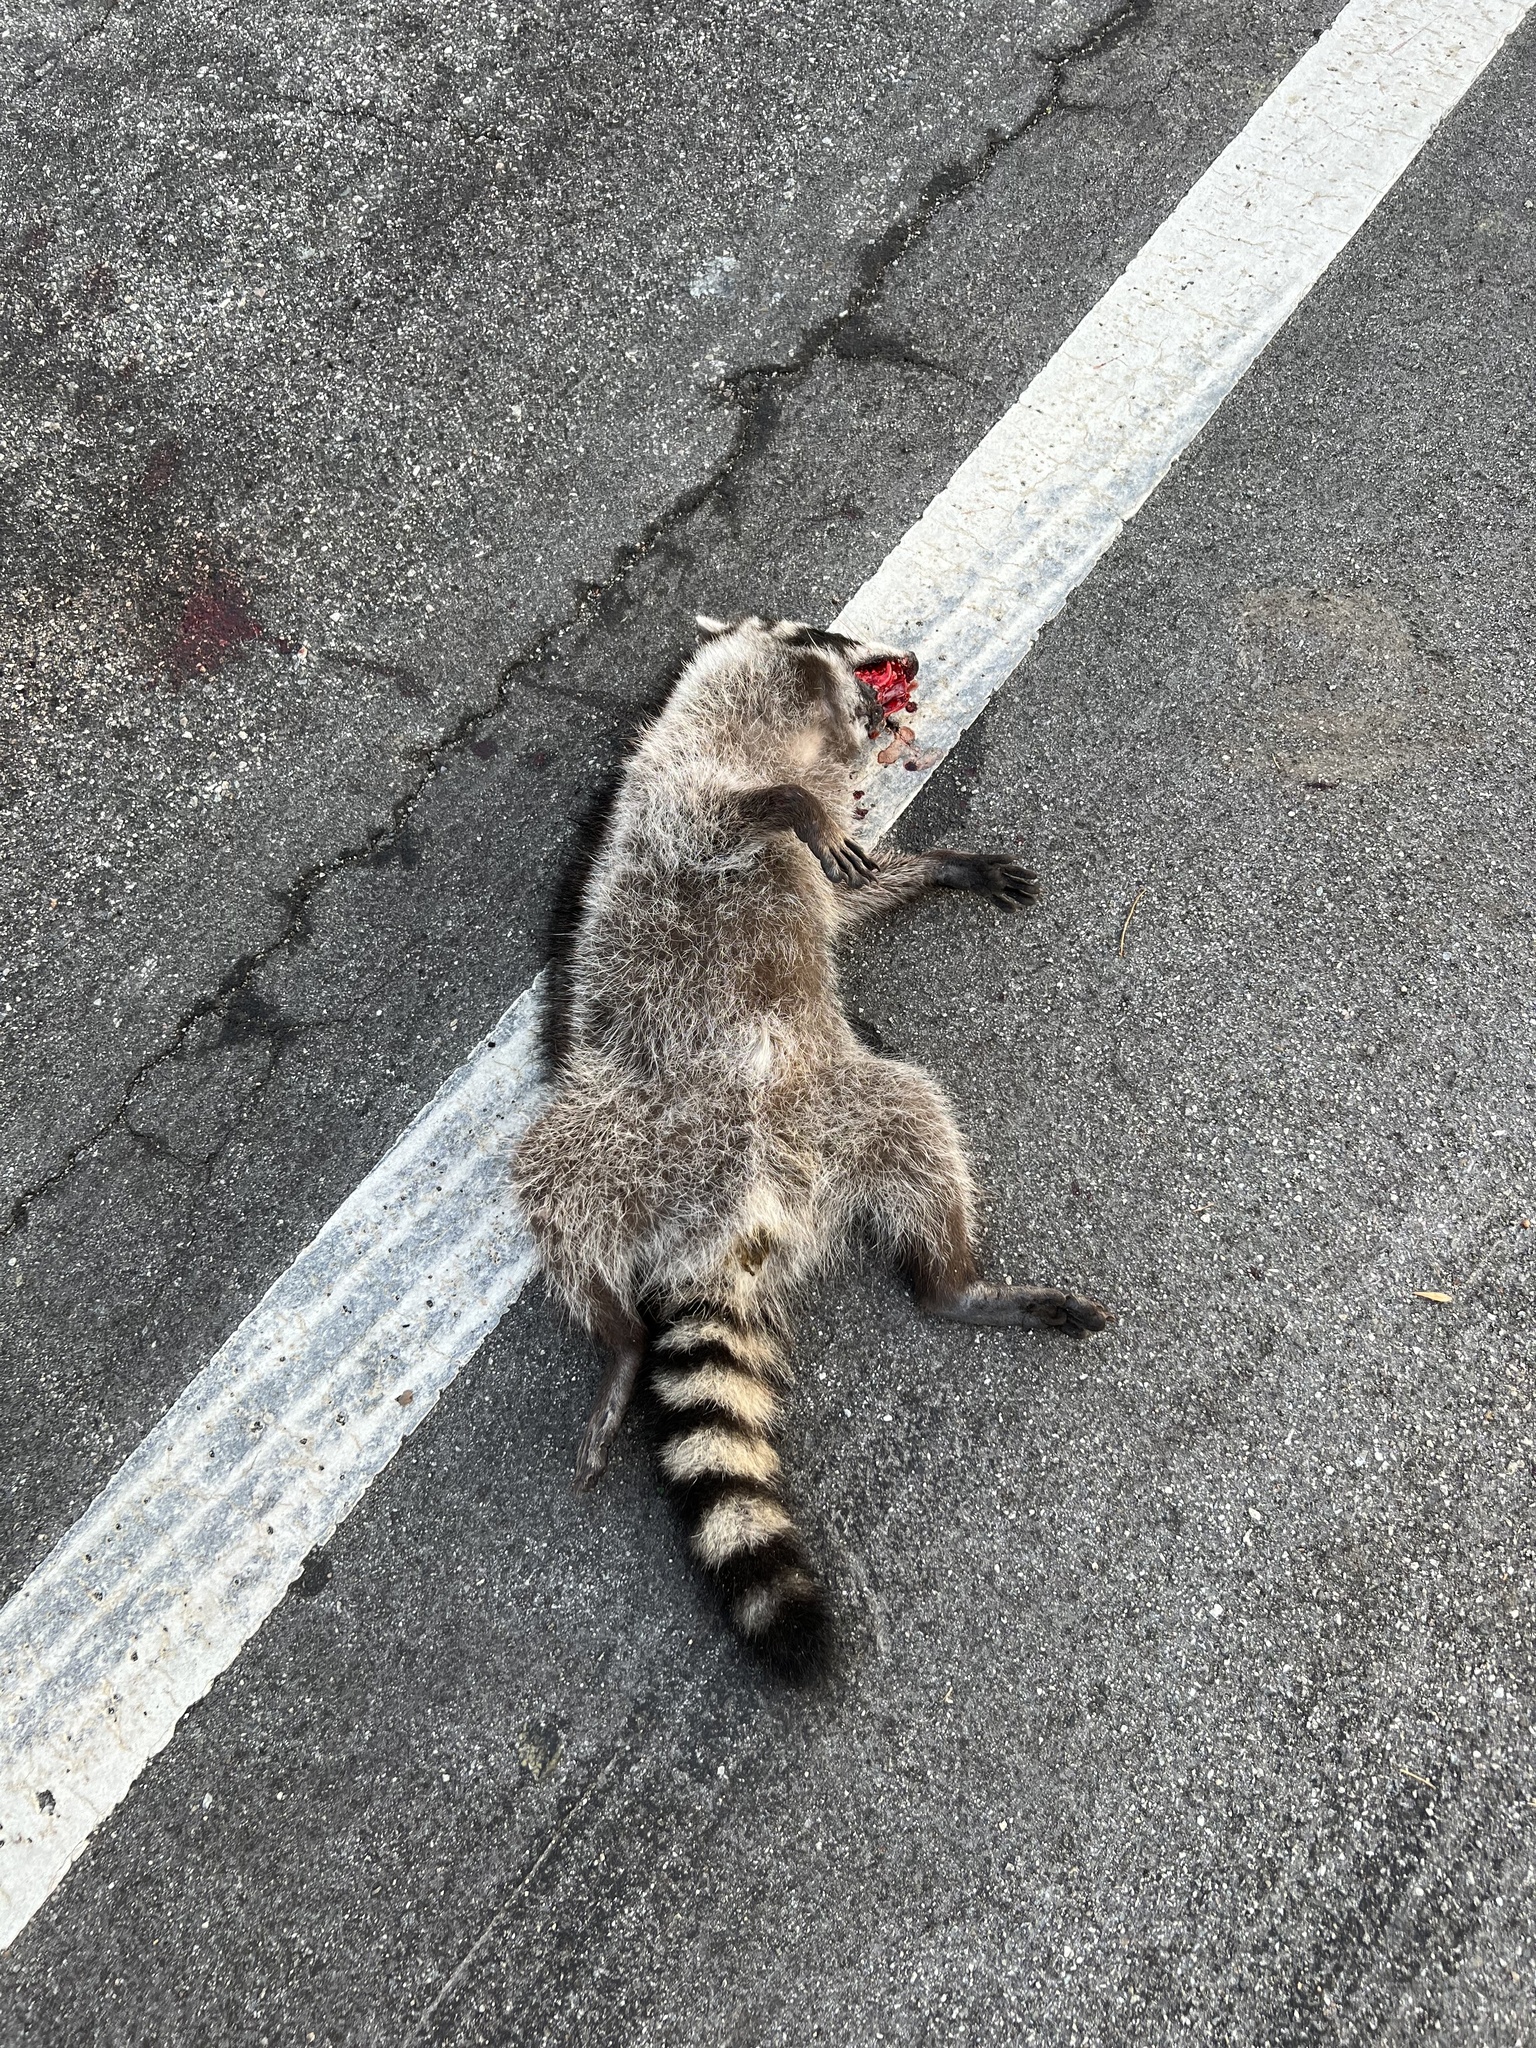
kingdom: Animalia
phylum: Chordata
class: Mammalia
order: Carnivora
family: Procyonidae
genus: Procyon
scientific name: Procyon lotor
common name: Raccoon
